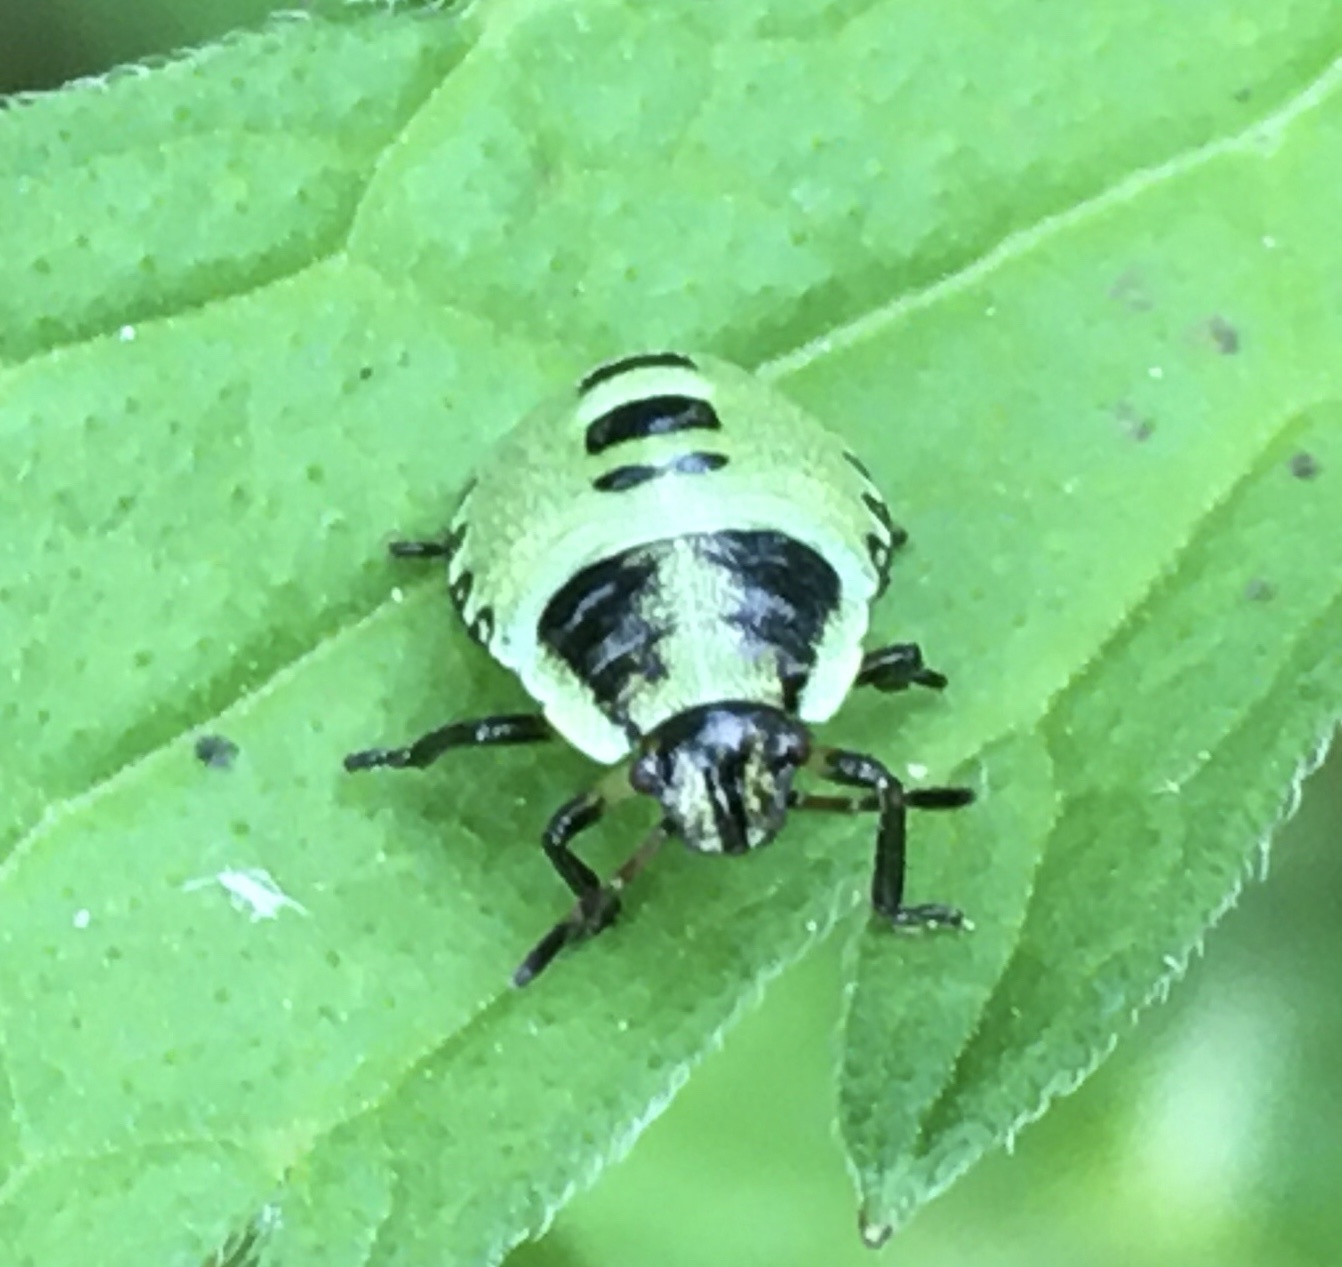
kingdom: Animalia
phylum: Arthropoda
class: Insecta
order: Hemiptera
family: Pentatomidae
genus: Palomena
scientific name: Palomena prasina
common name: Green shieldbug
